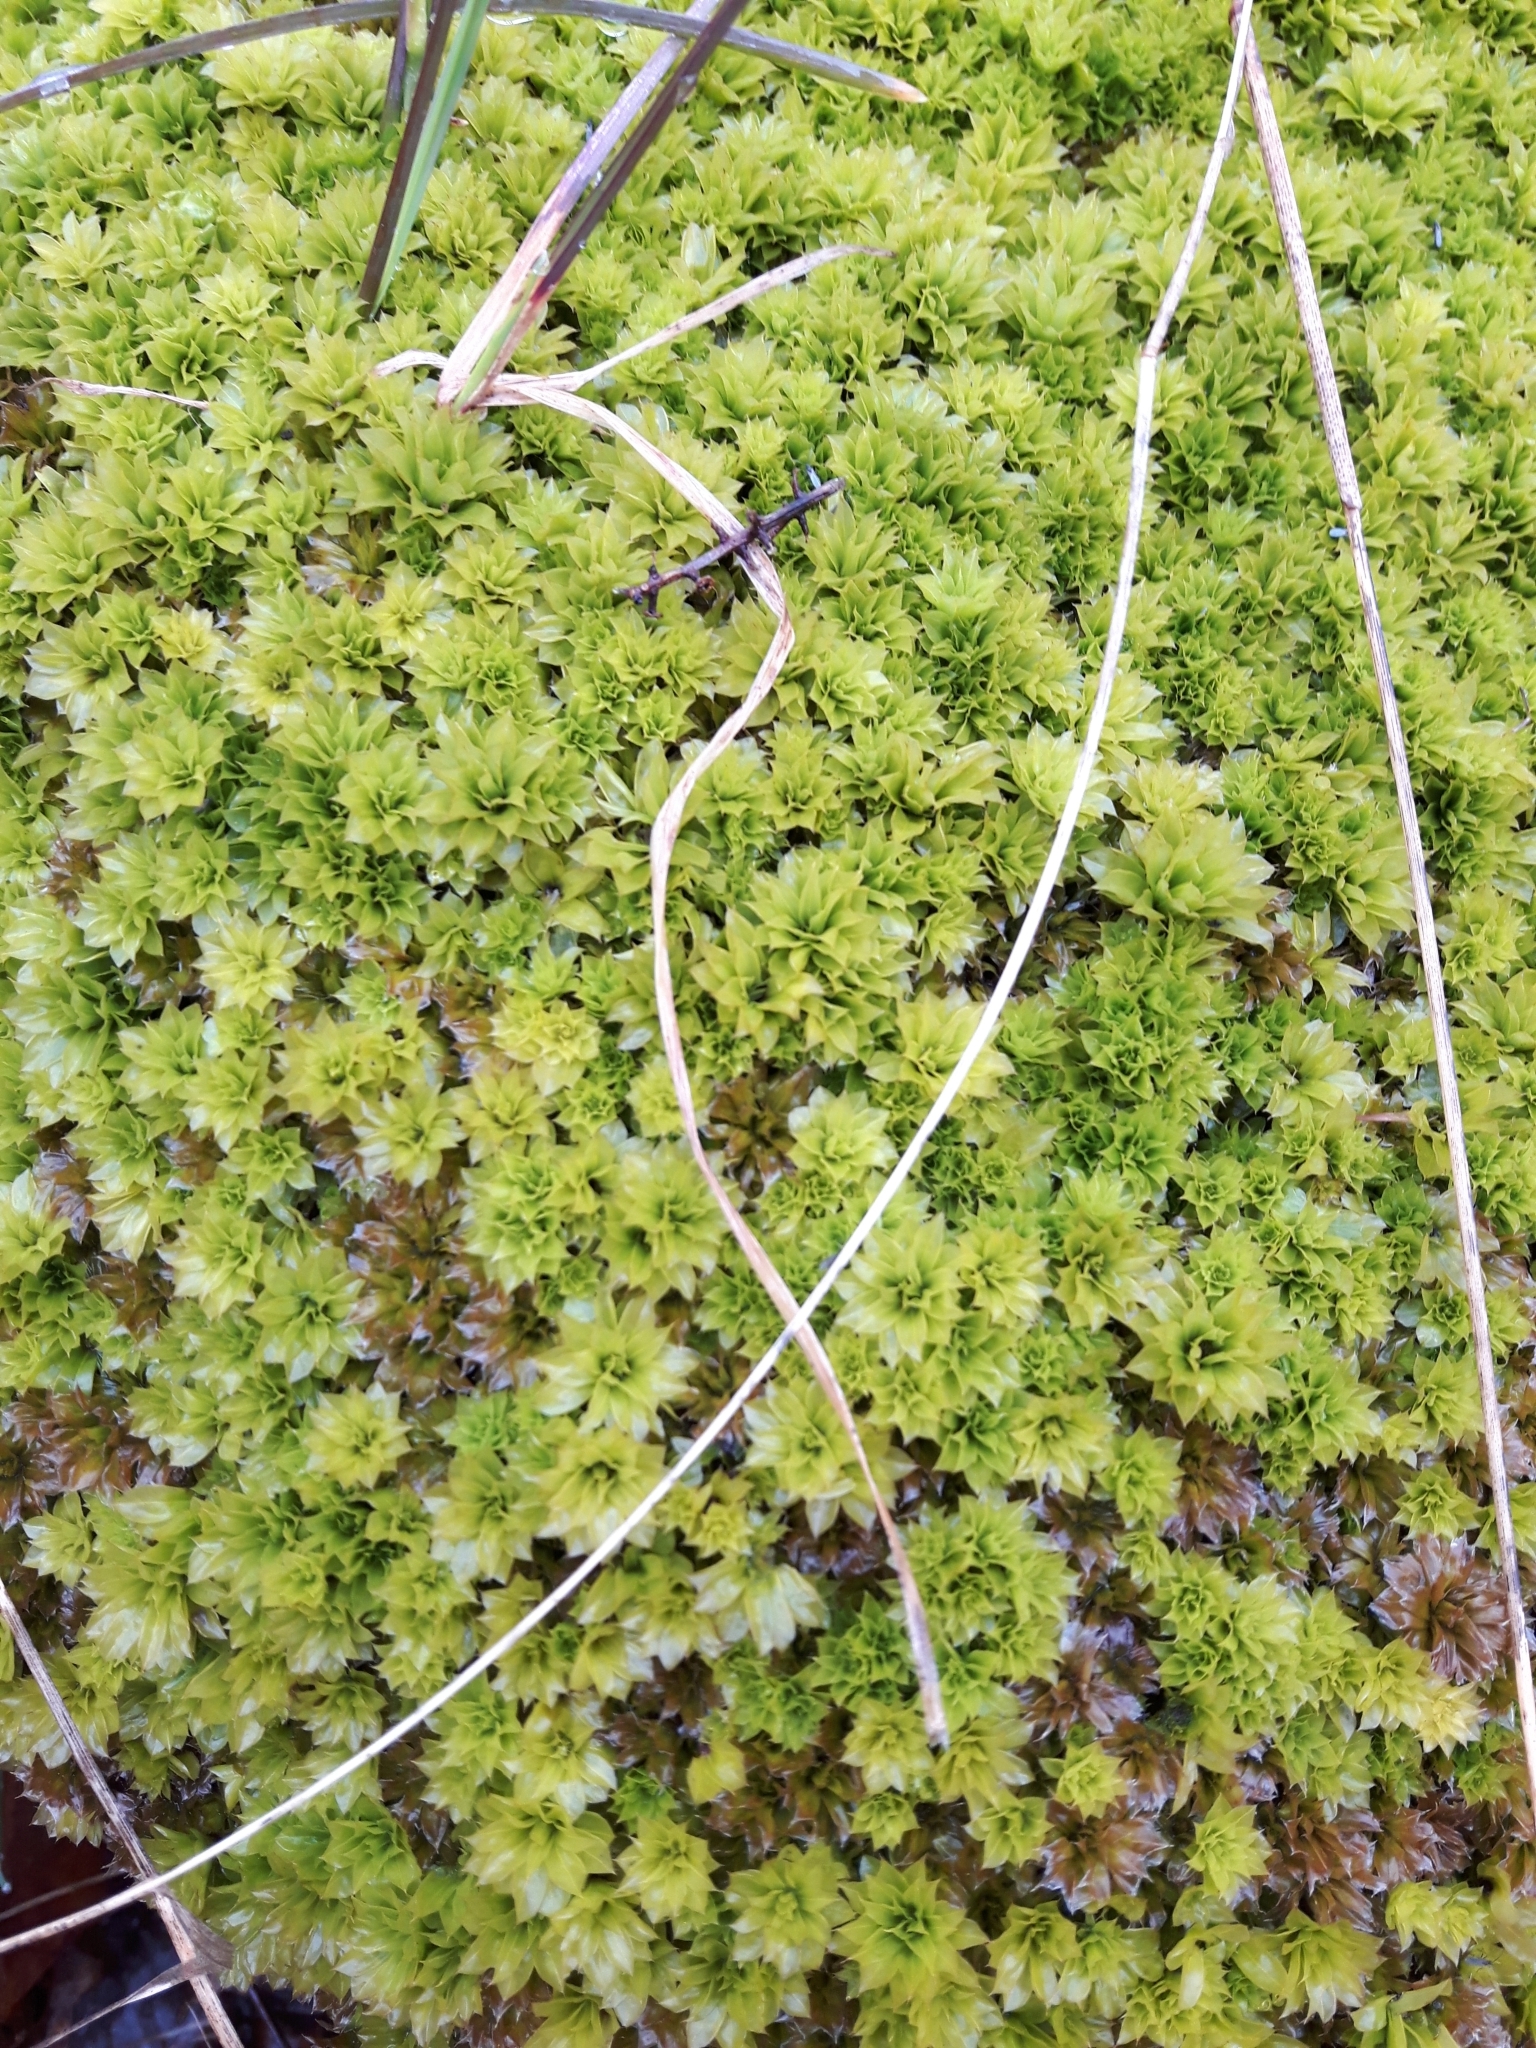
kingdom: Plantae
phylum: Bryophyta
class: Bryopsida
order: Bryales
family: Bryaceae
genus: Rhodobryum
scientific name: Rhodobryum ontariense
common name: Ontario rhodobryum moss
